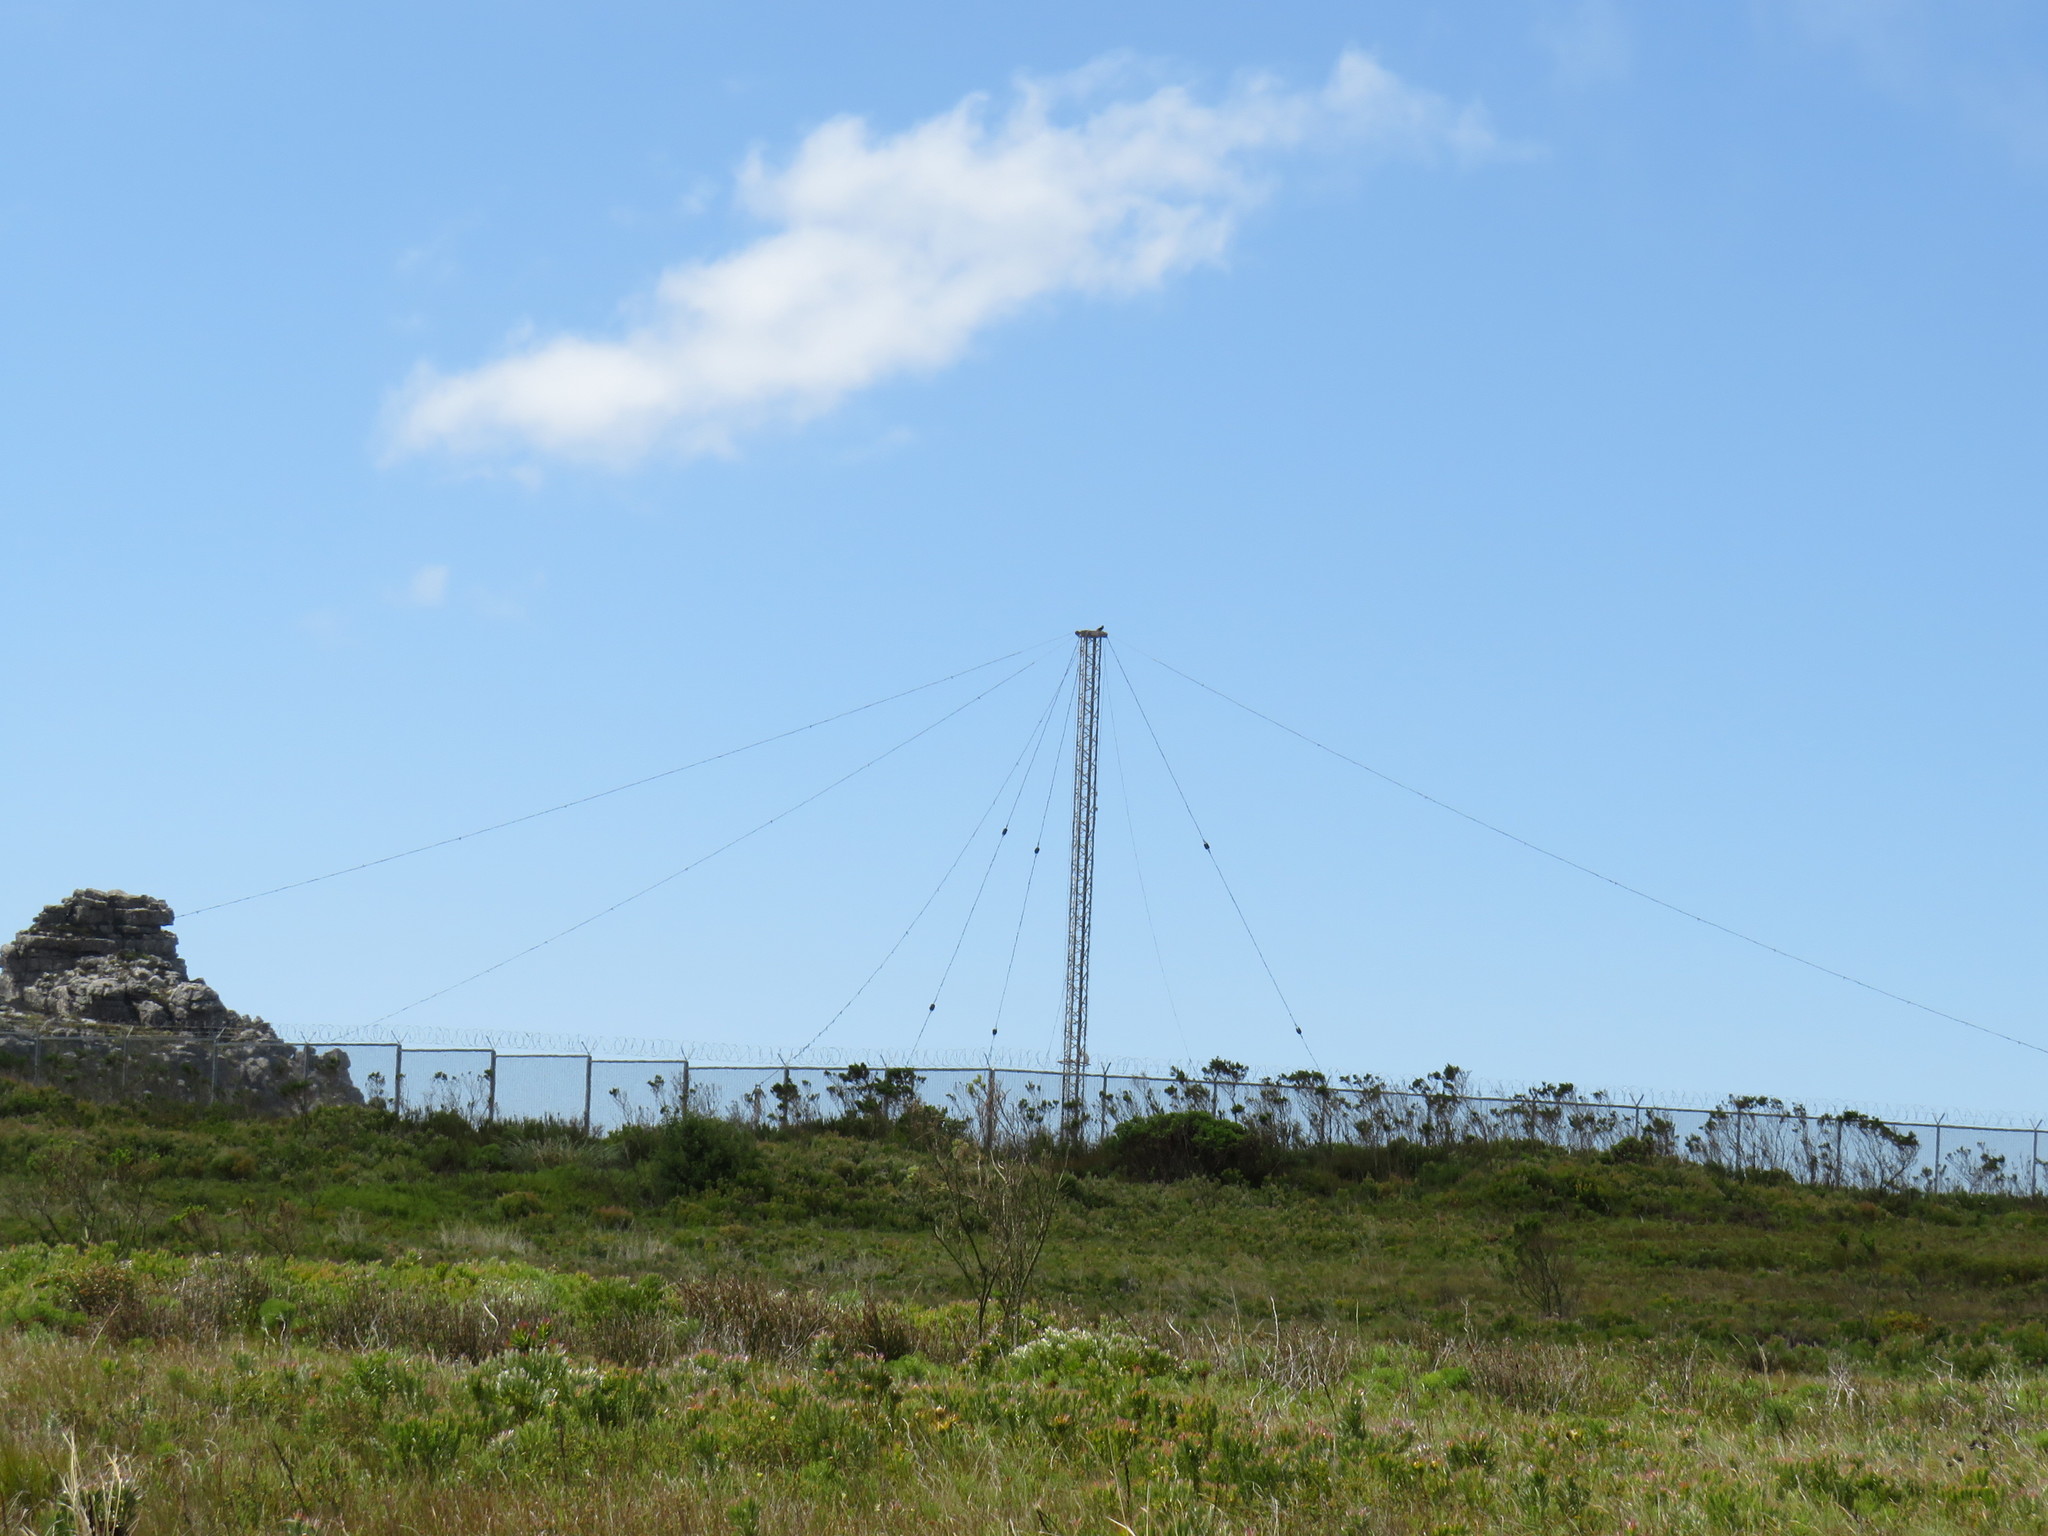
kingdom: Animalia
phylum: Chordata
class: Aves
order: Accipitriformes
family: Accipitridae
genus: Buteo
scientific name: Buteo rufofuscus
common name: Jackal buzzard
